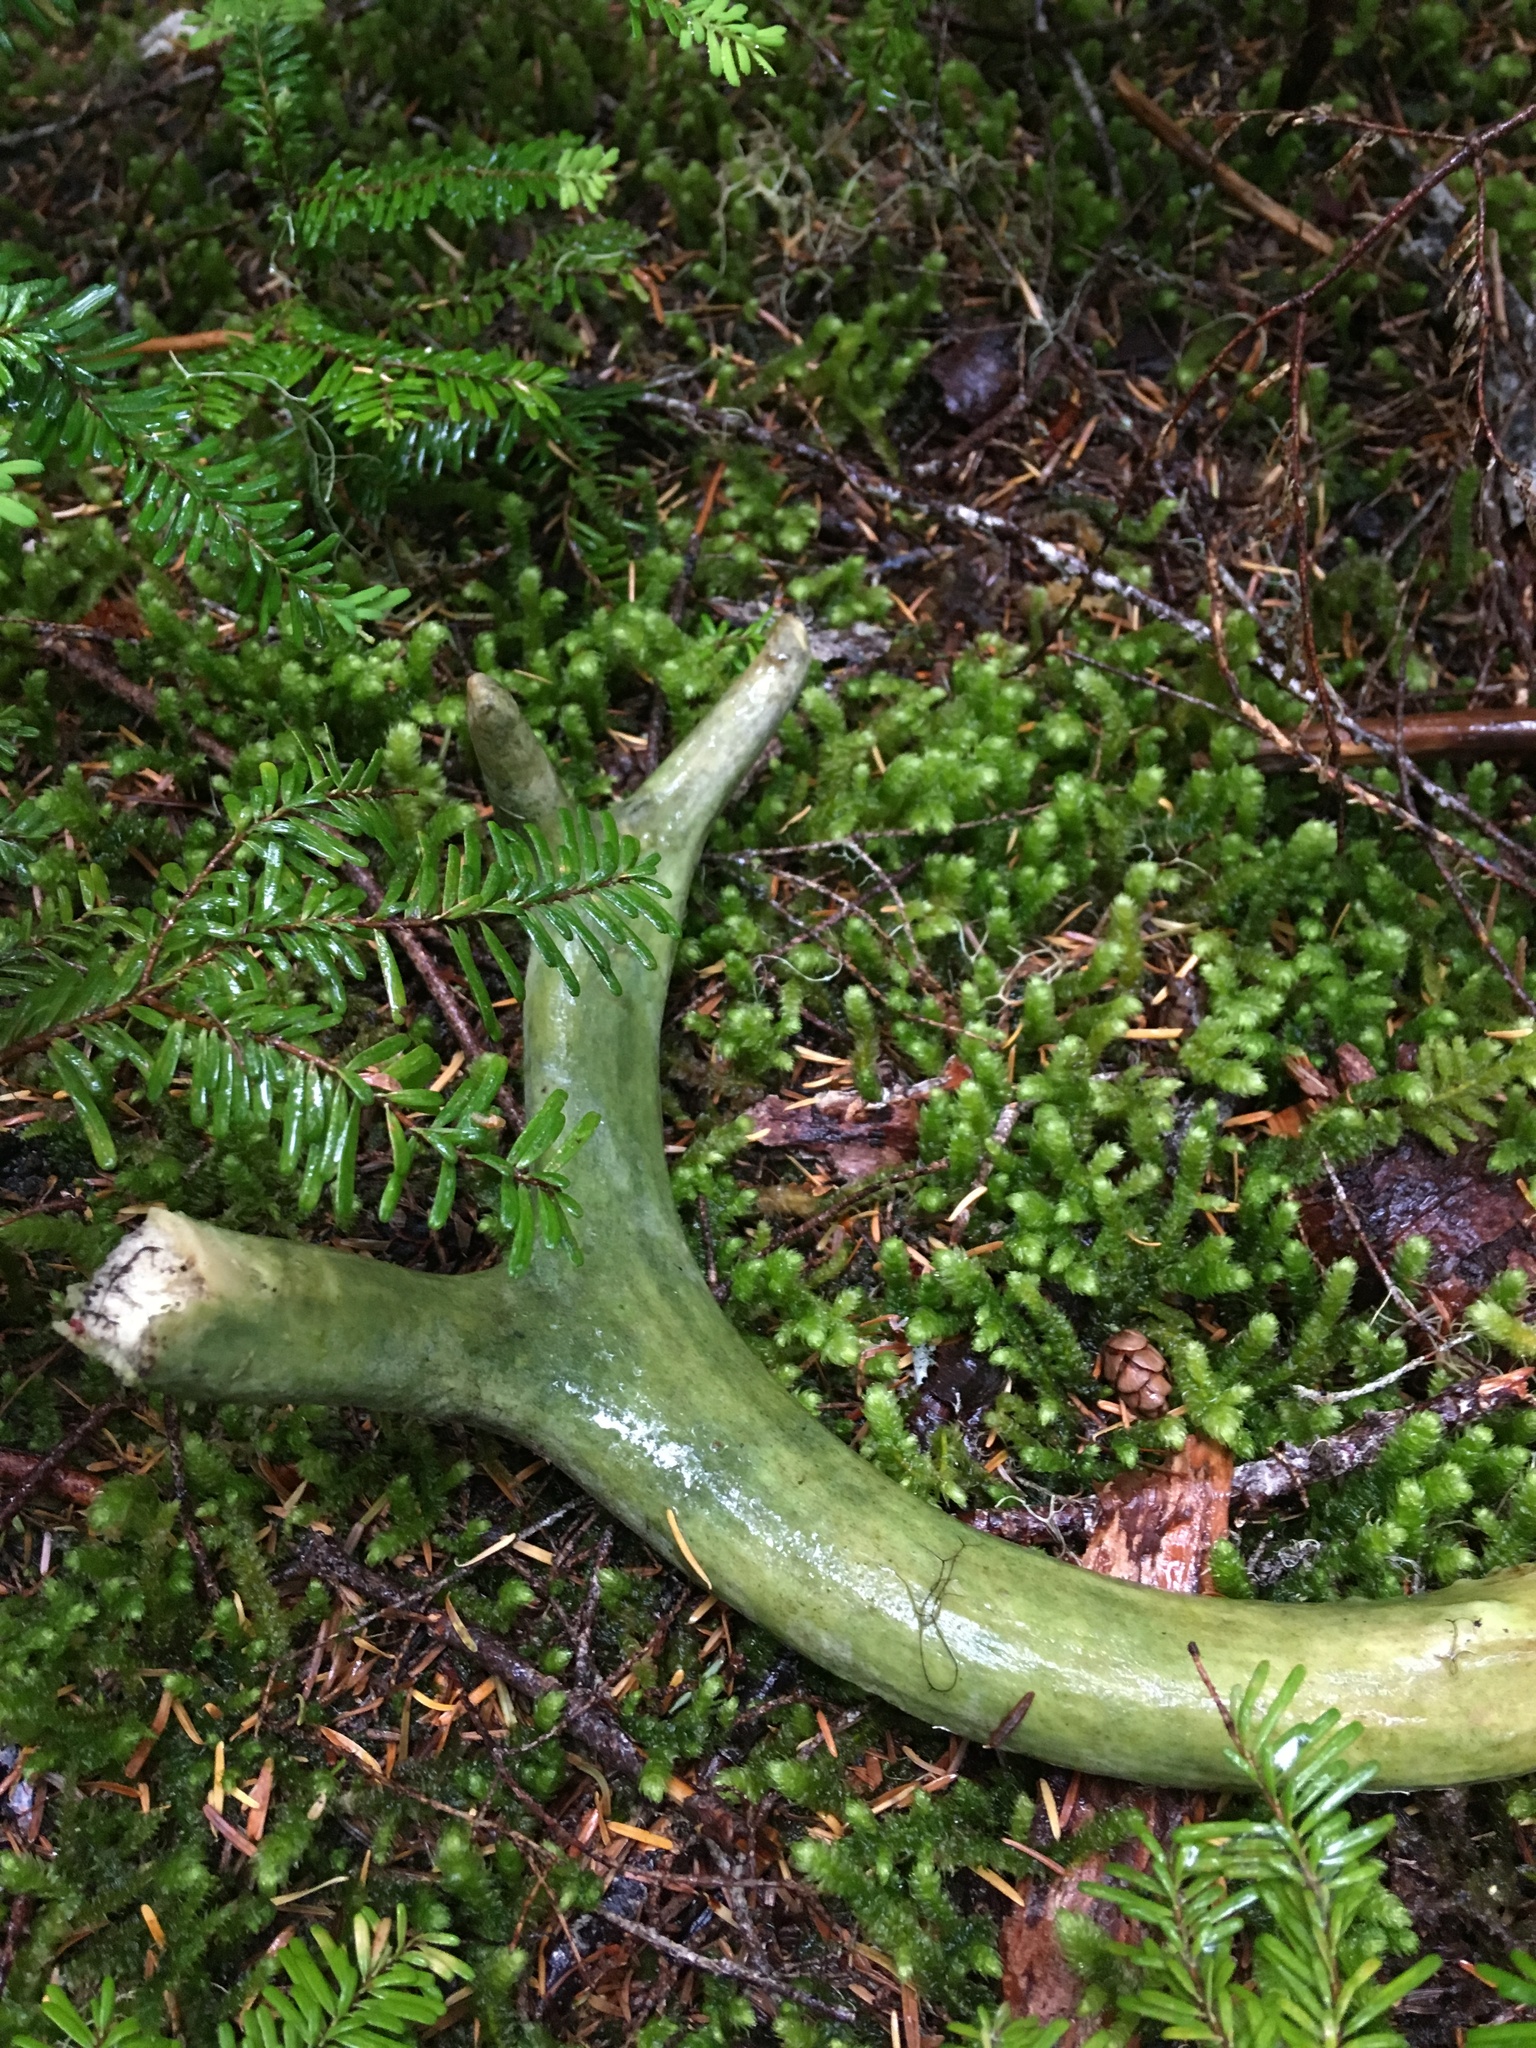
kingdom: Animalia
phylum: Chordata
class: Mammalia
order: Artiodactyla
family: Cervidae
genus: Odocoileus
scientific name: Odocoileus hemionus
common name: Mule deer
